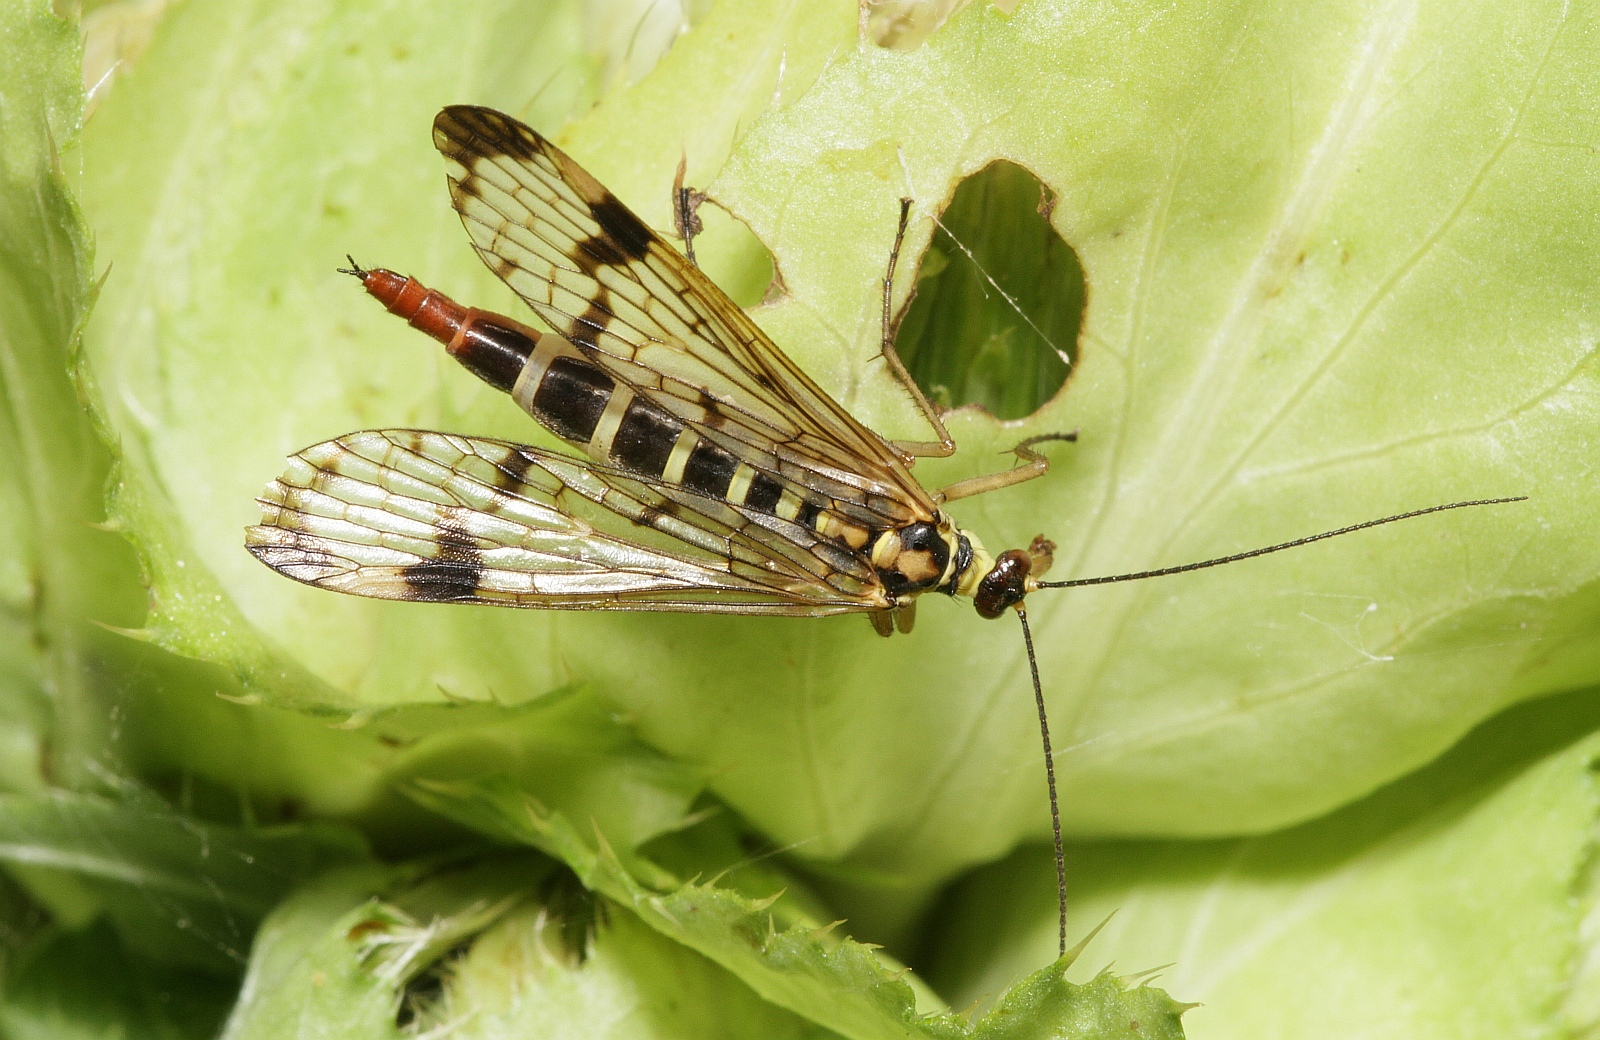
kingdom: Animalia
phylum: Arthropoda
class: Insecta
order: Mecoptera
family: Panorpidae
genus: Panorpa
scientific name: Panorpa communis
